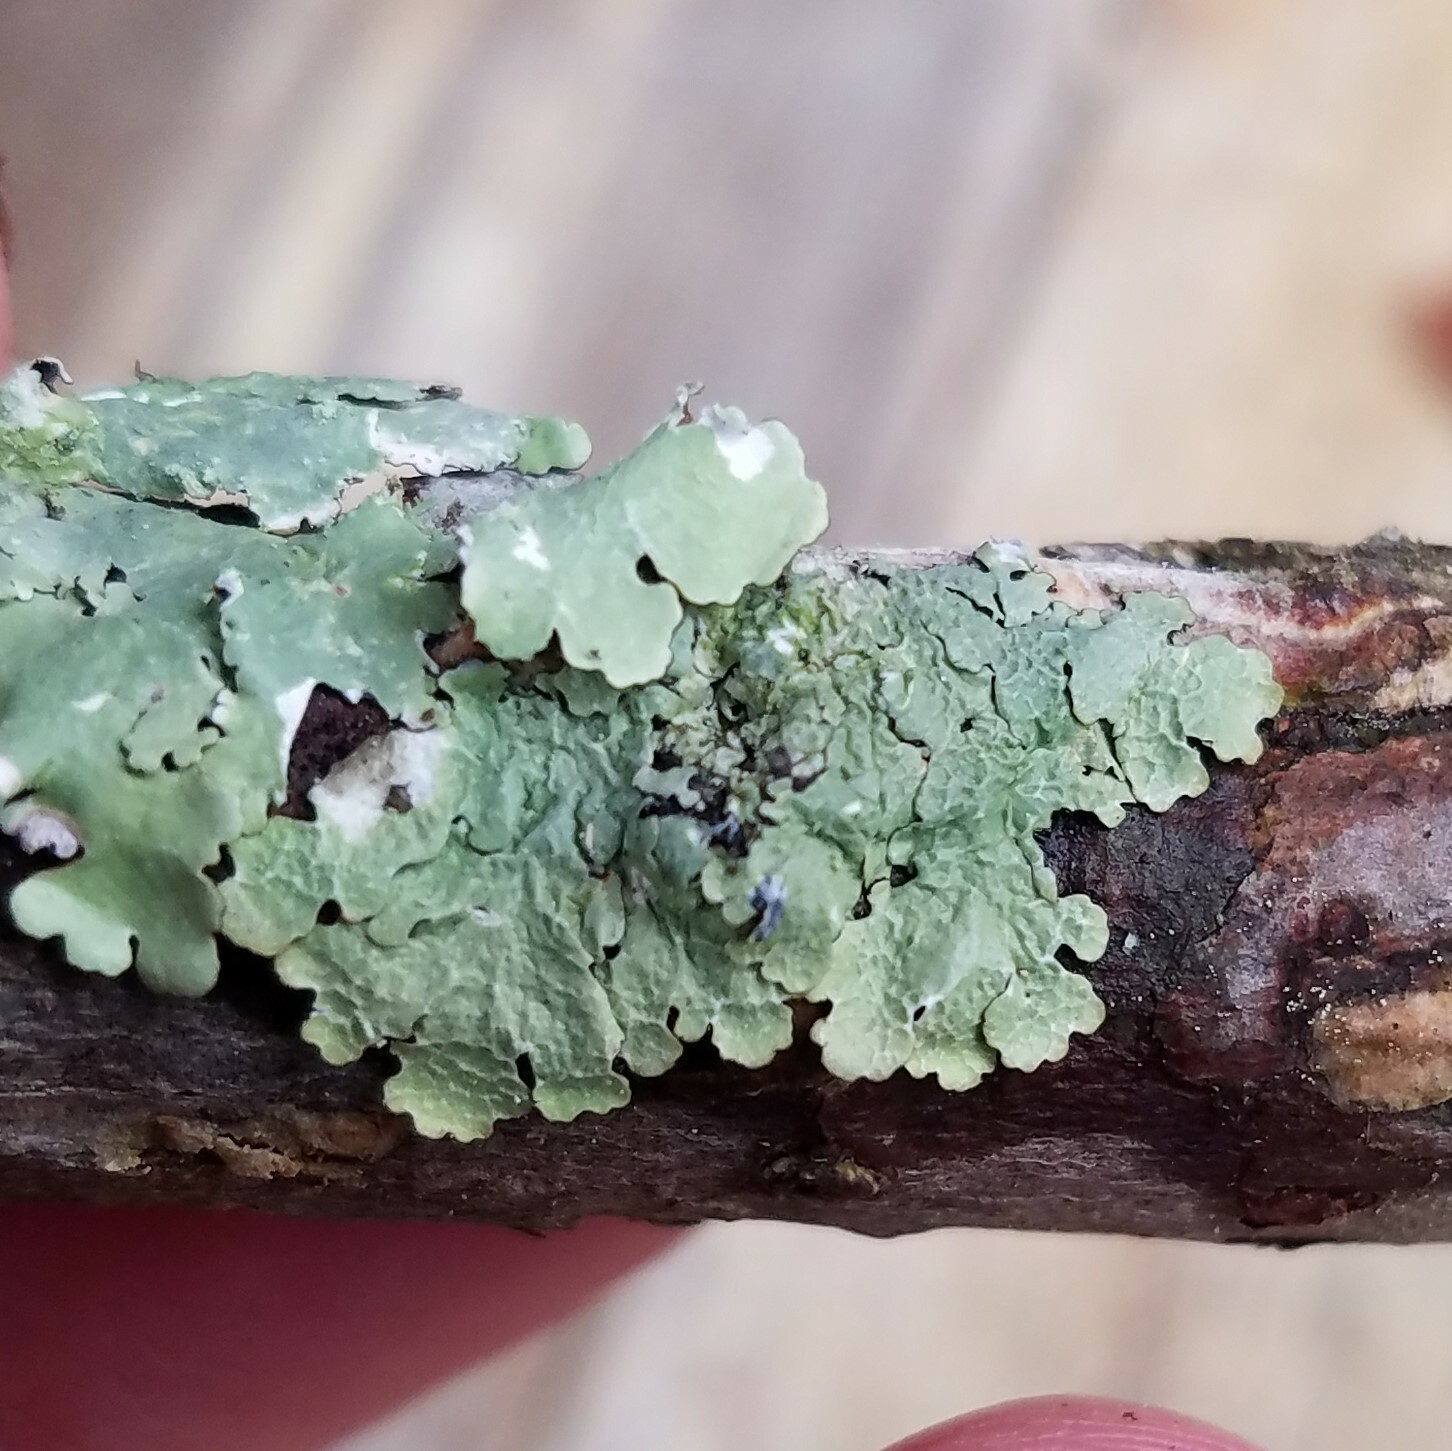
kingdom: Fungi
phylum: Ascomycota
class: Lecanoromycetes
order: Lecanorales
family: Parmeliaceae
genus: Crespoa
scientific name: Crespoa crozalsiana
